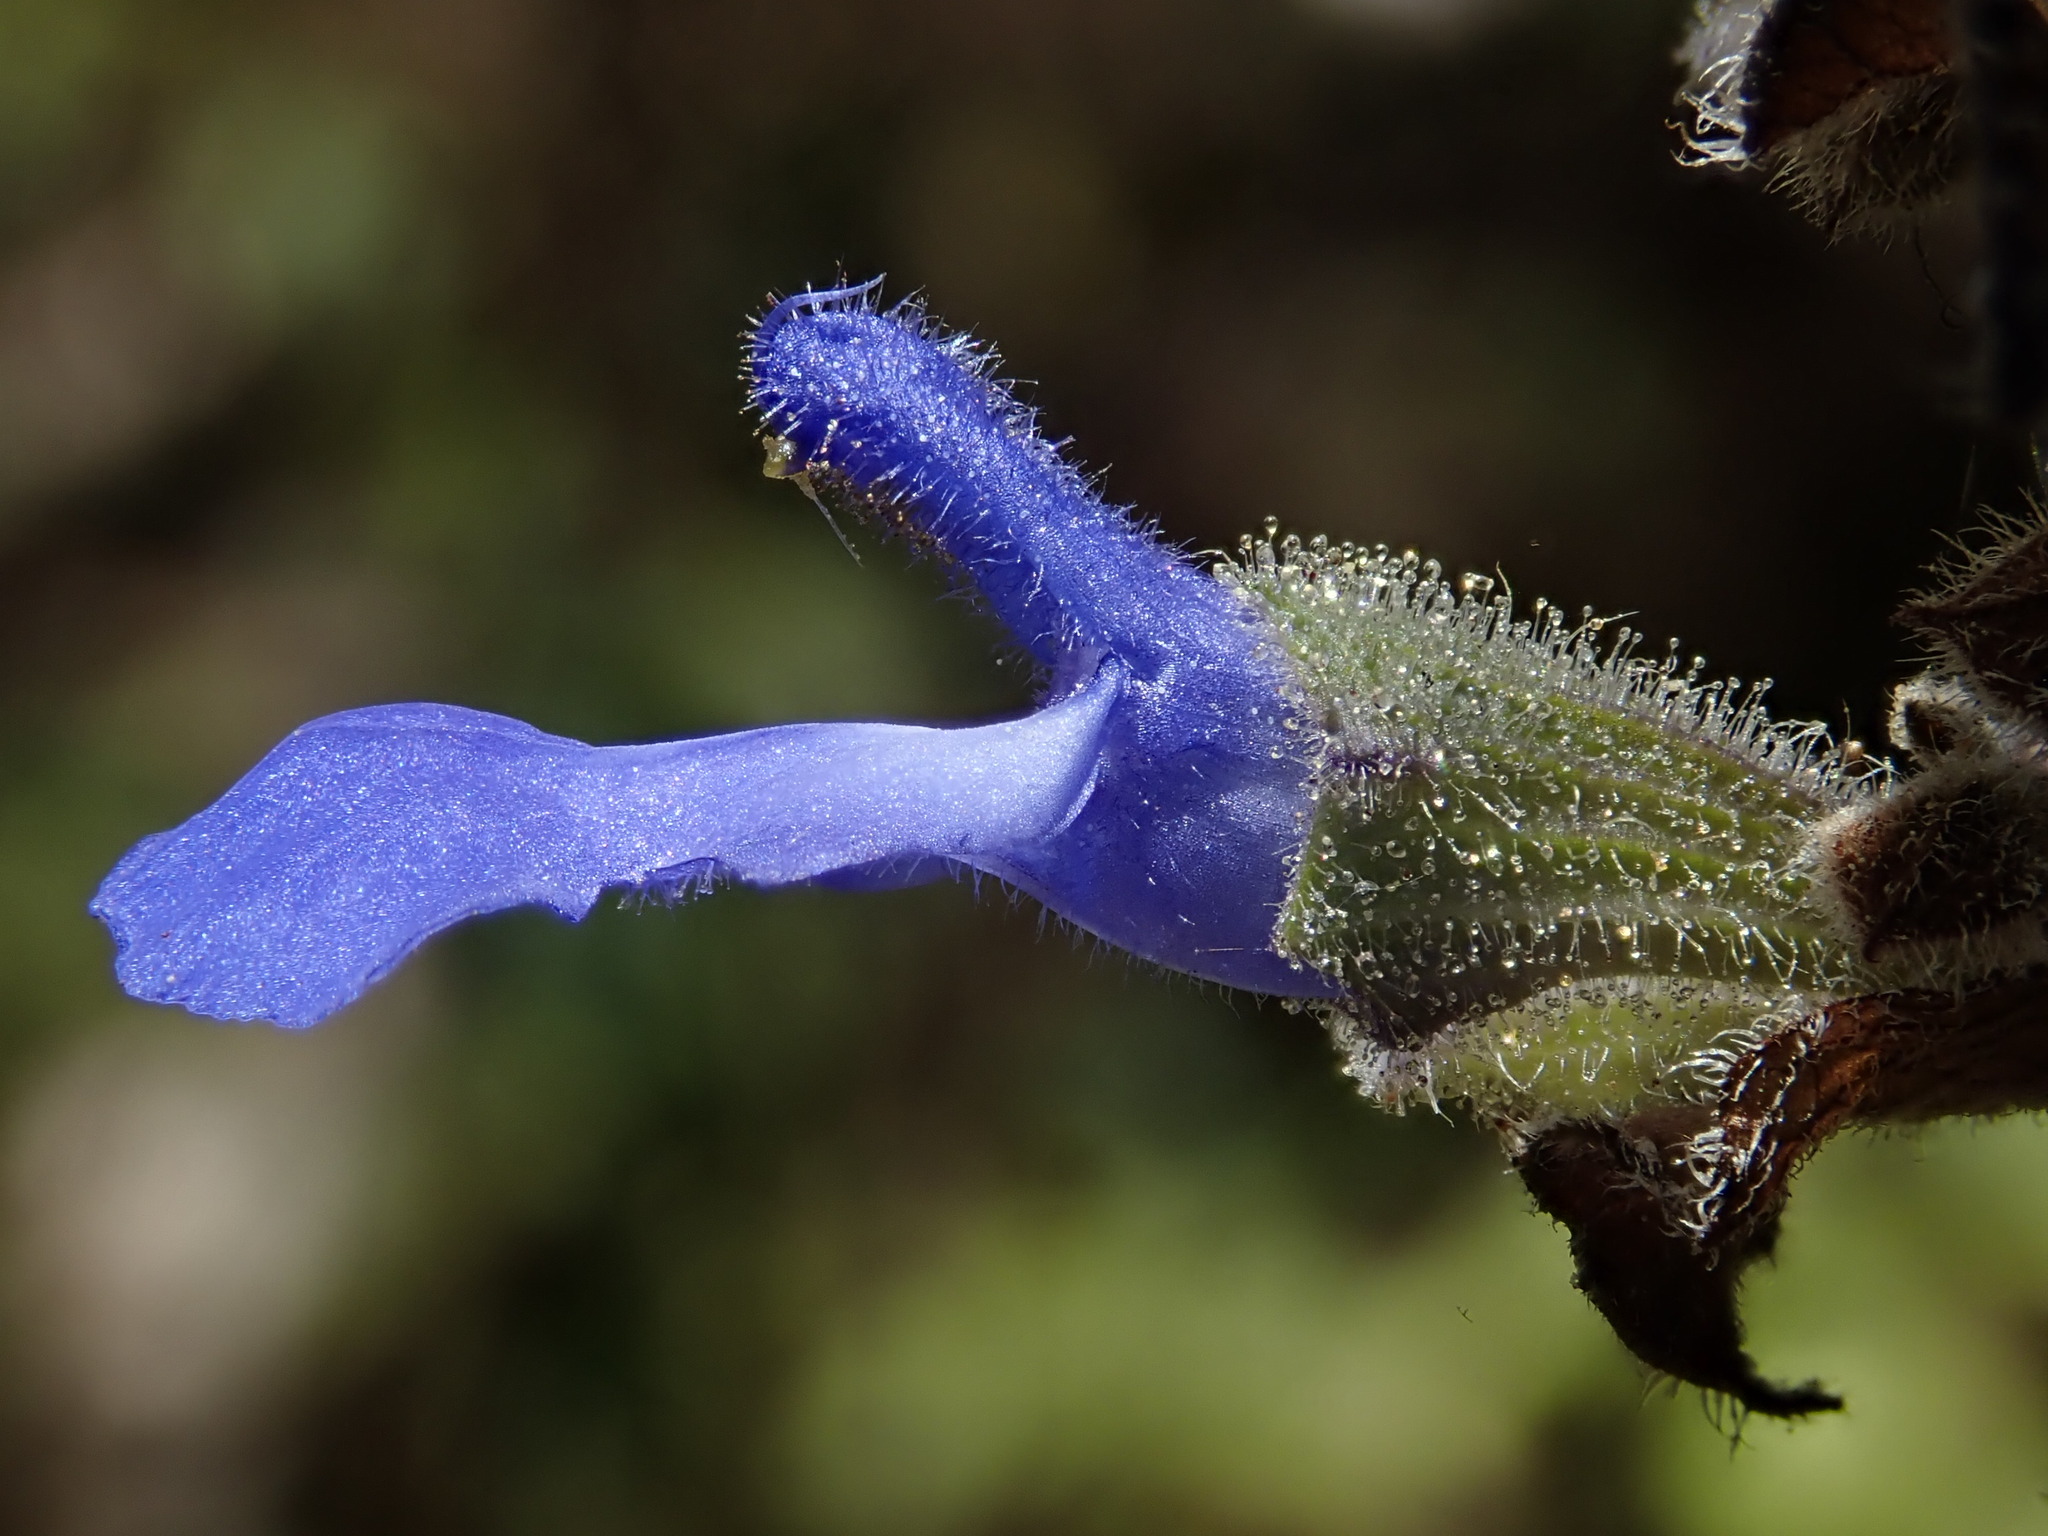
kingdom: Plantae
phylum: Tracheophyta
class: Magnoliopsida
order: Lamiales
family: Lamiaceae
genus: Salvia
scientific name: Salvia mocinoi
